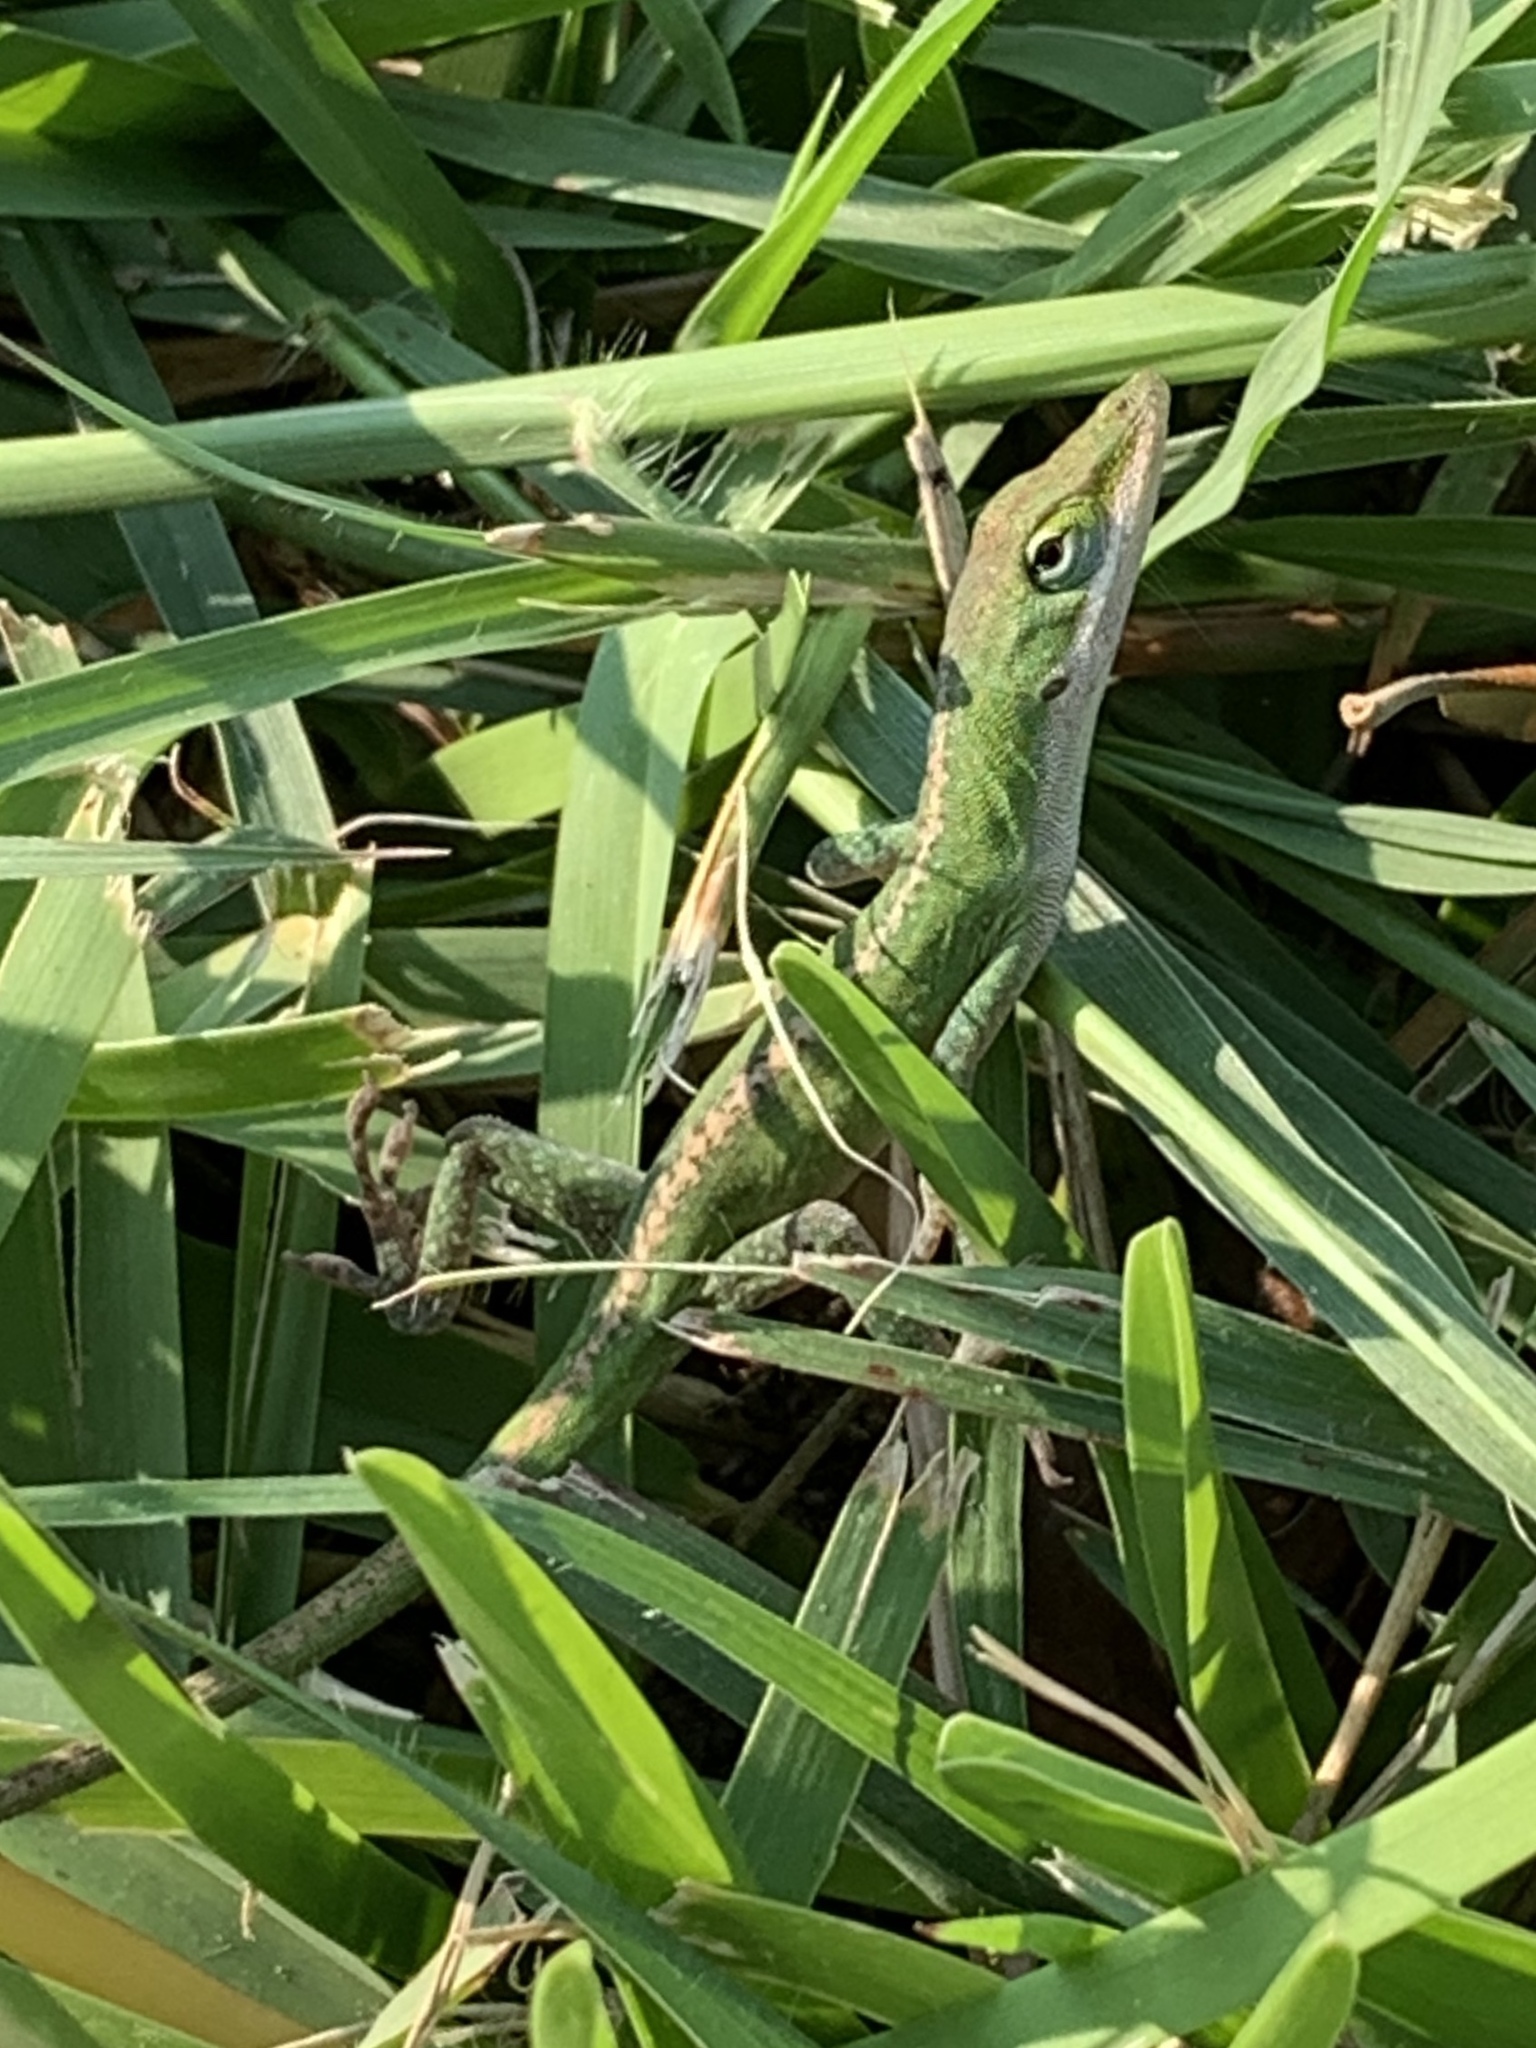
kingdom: Animalia
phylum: Chordata
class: Squamata
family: Dactyloidae
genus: Anolis
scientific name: Anolis carolinensis
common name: Green anole
